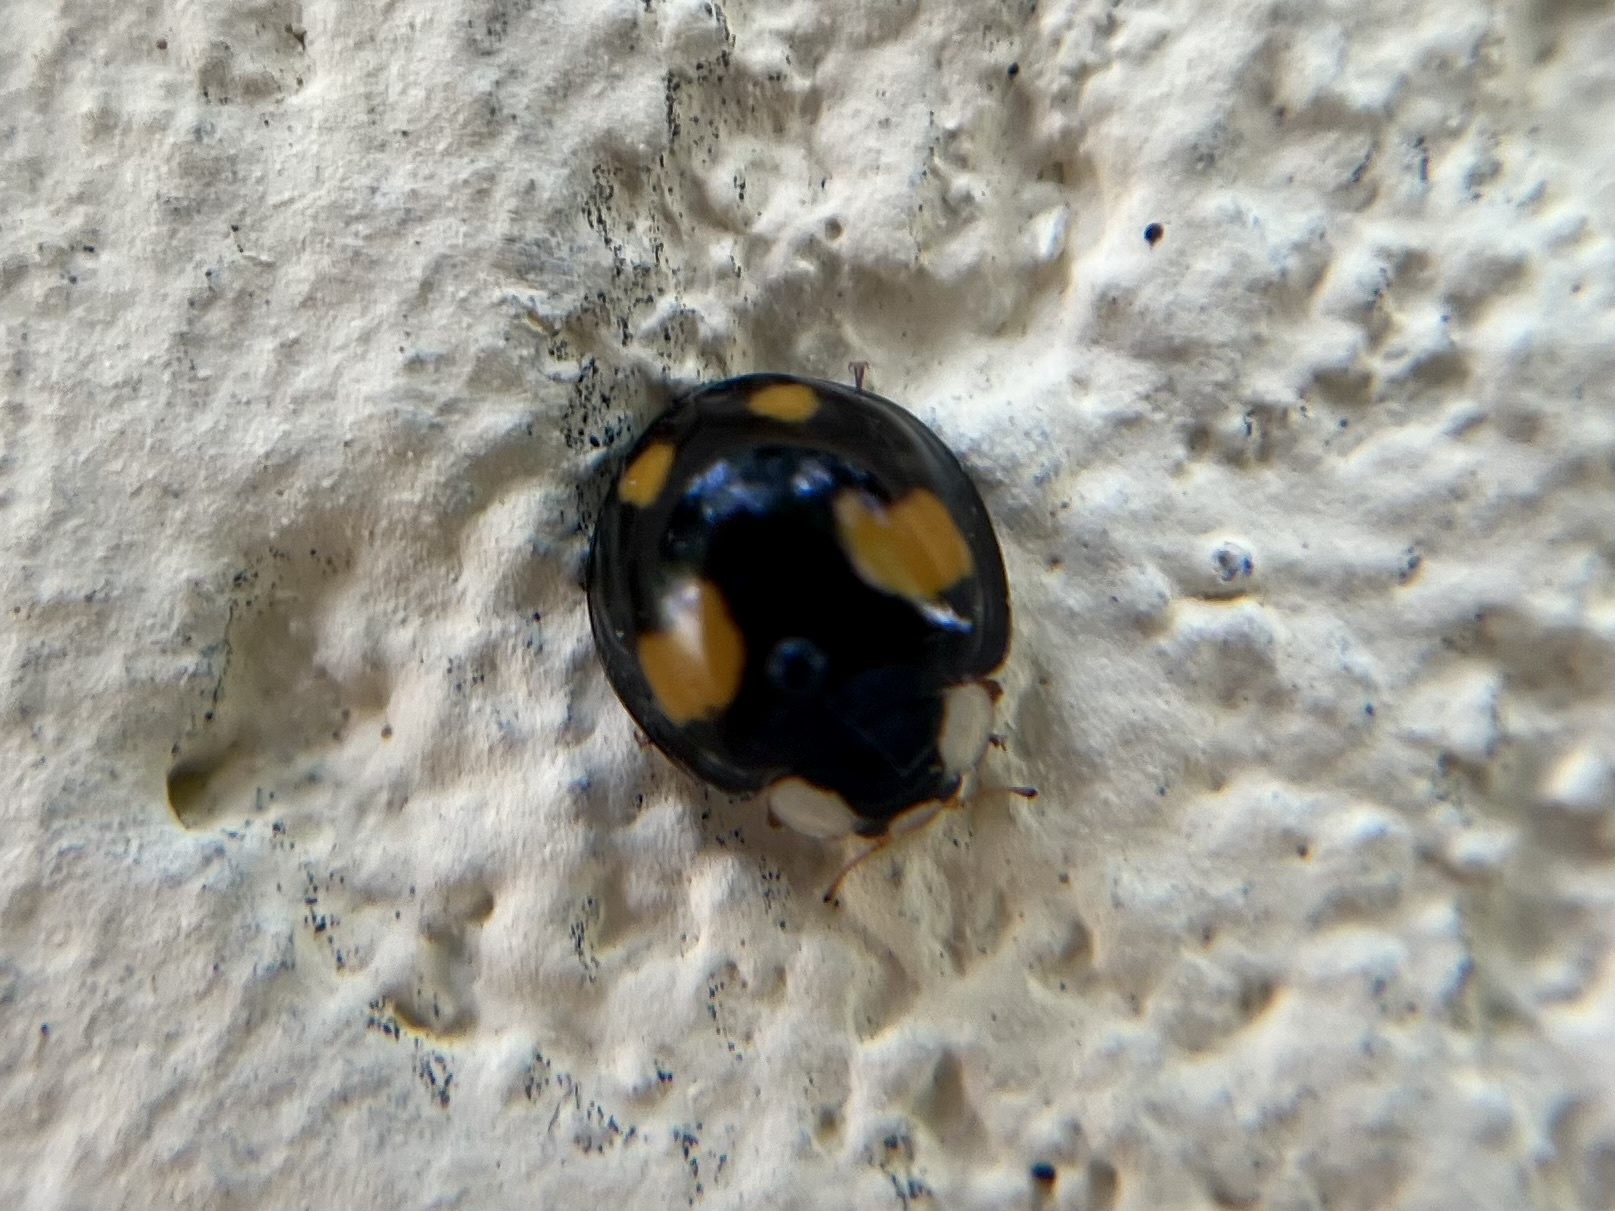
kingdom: Animalia
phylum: Arthropoda
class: Insecta
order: Coleoptera
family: Coccinellidae
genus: Harmonia
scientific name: Harmonia axyridis
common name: Harlequin ladybird
